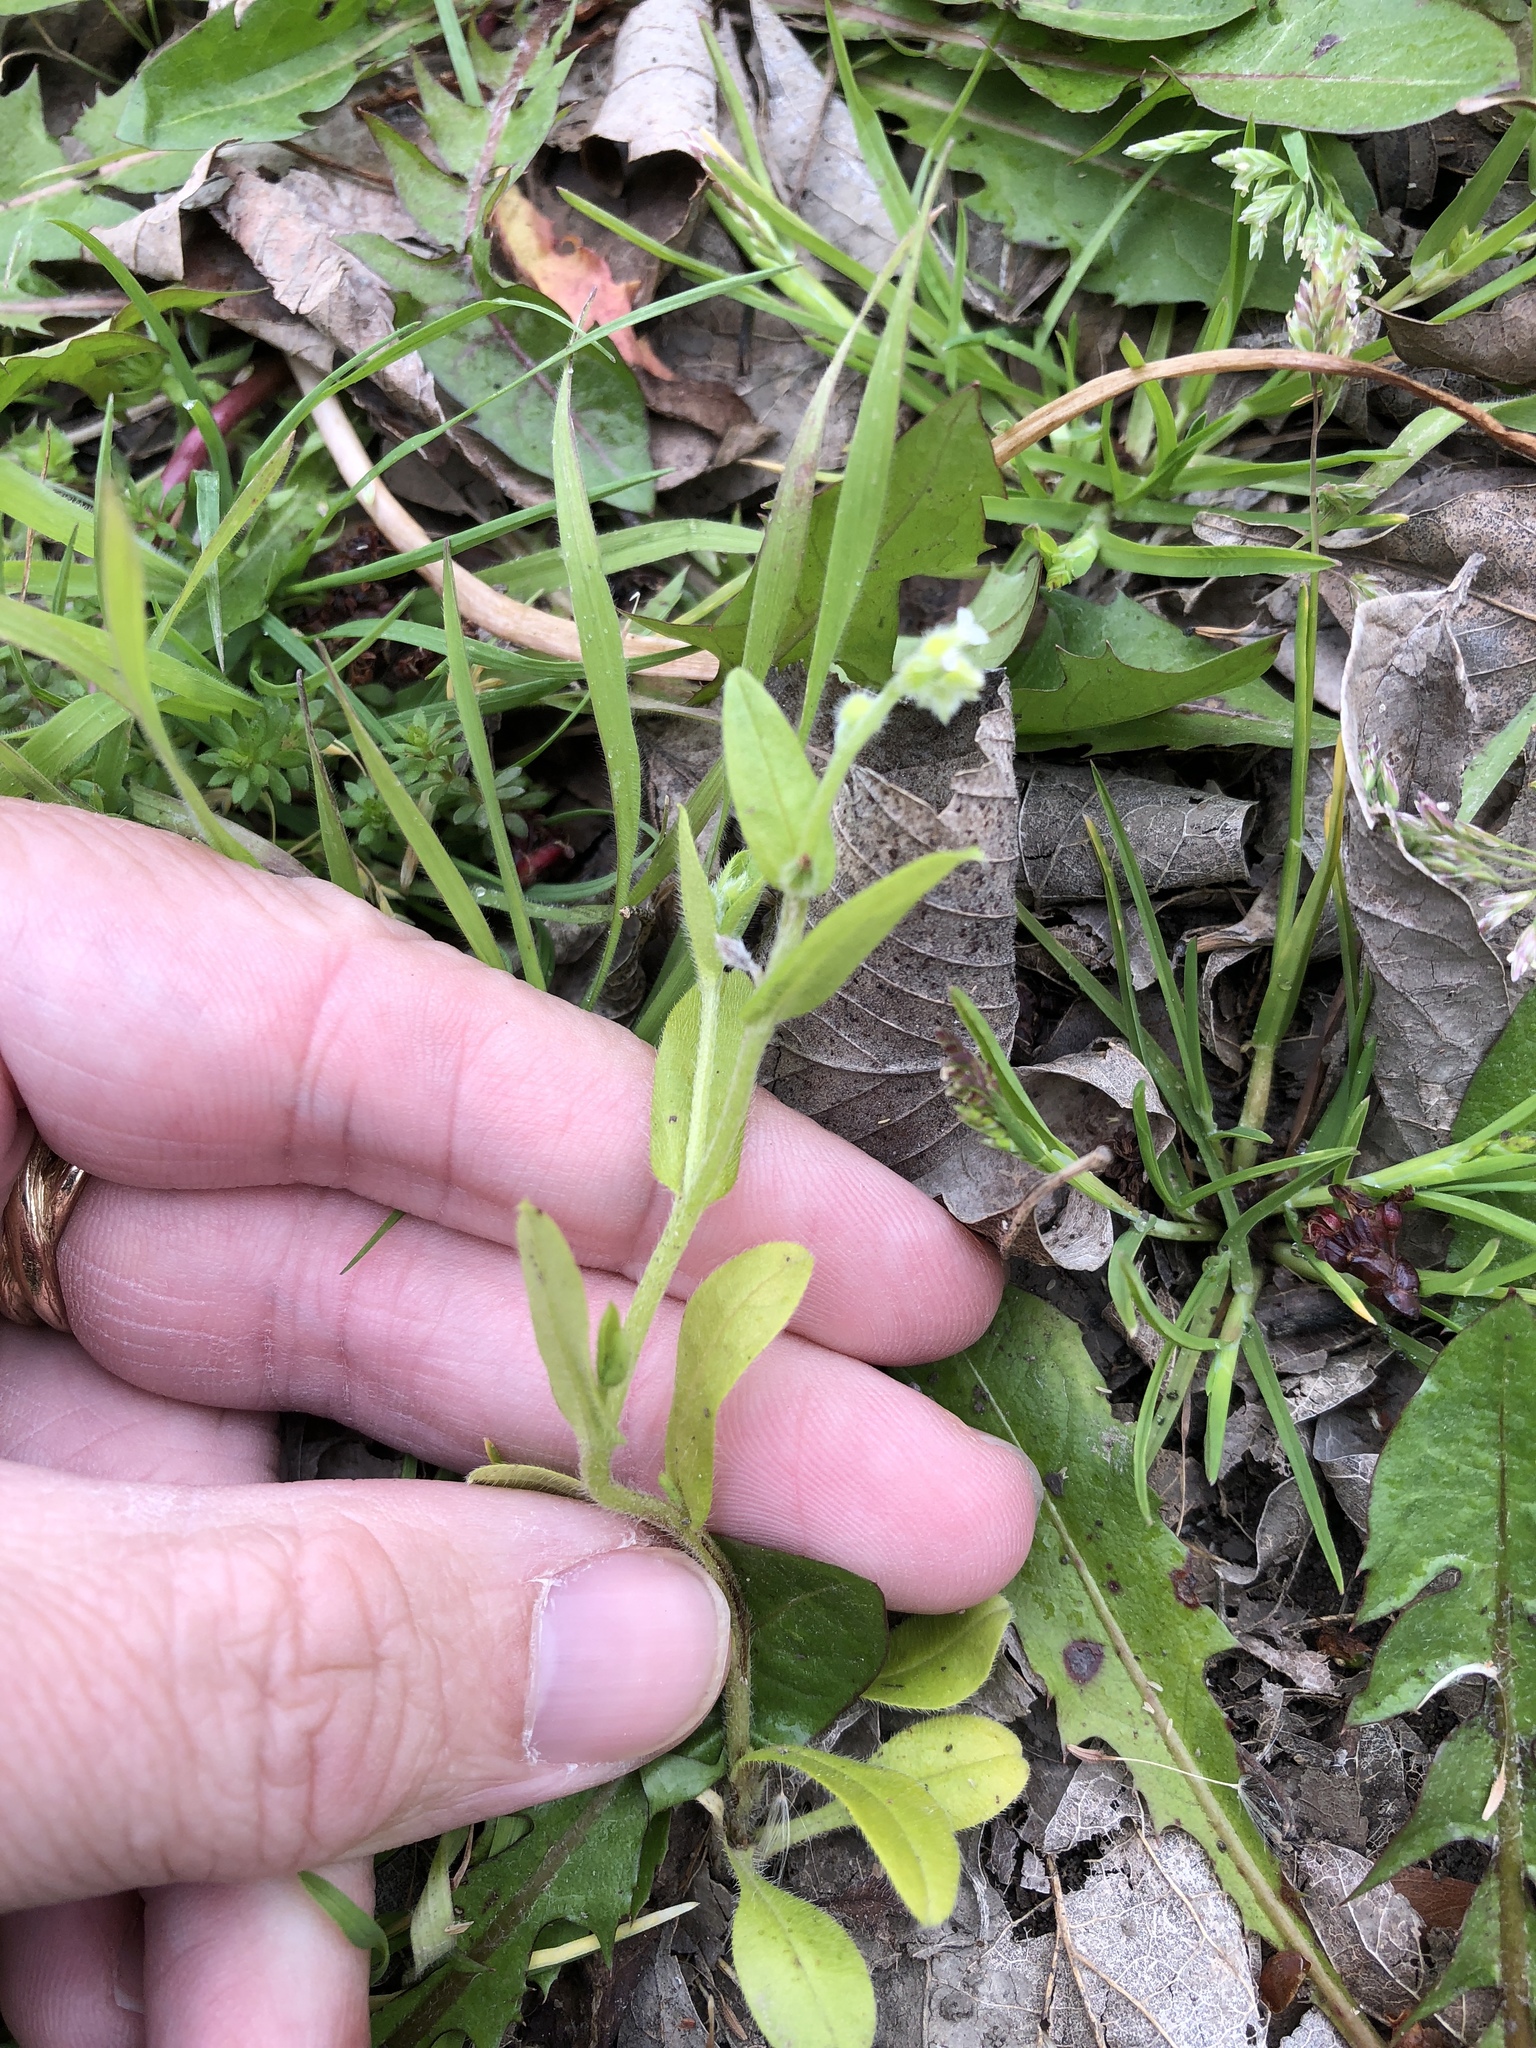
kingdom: Plantae
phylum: Tracheophyta
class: Magnoliopsida
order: Boraginales
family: Boraginaceae
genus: Myosotis
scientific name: Myosotis macrosperma
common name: Large-seed forget-me-not
